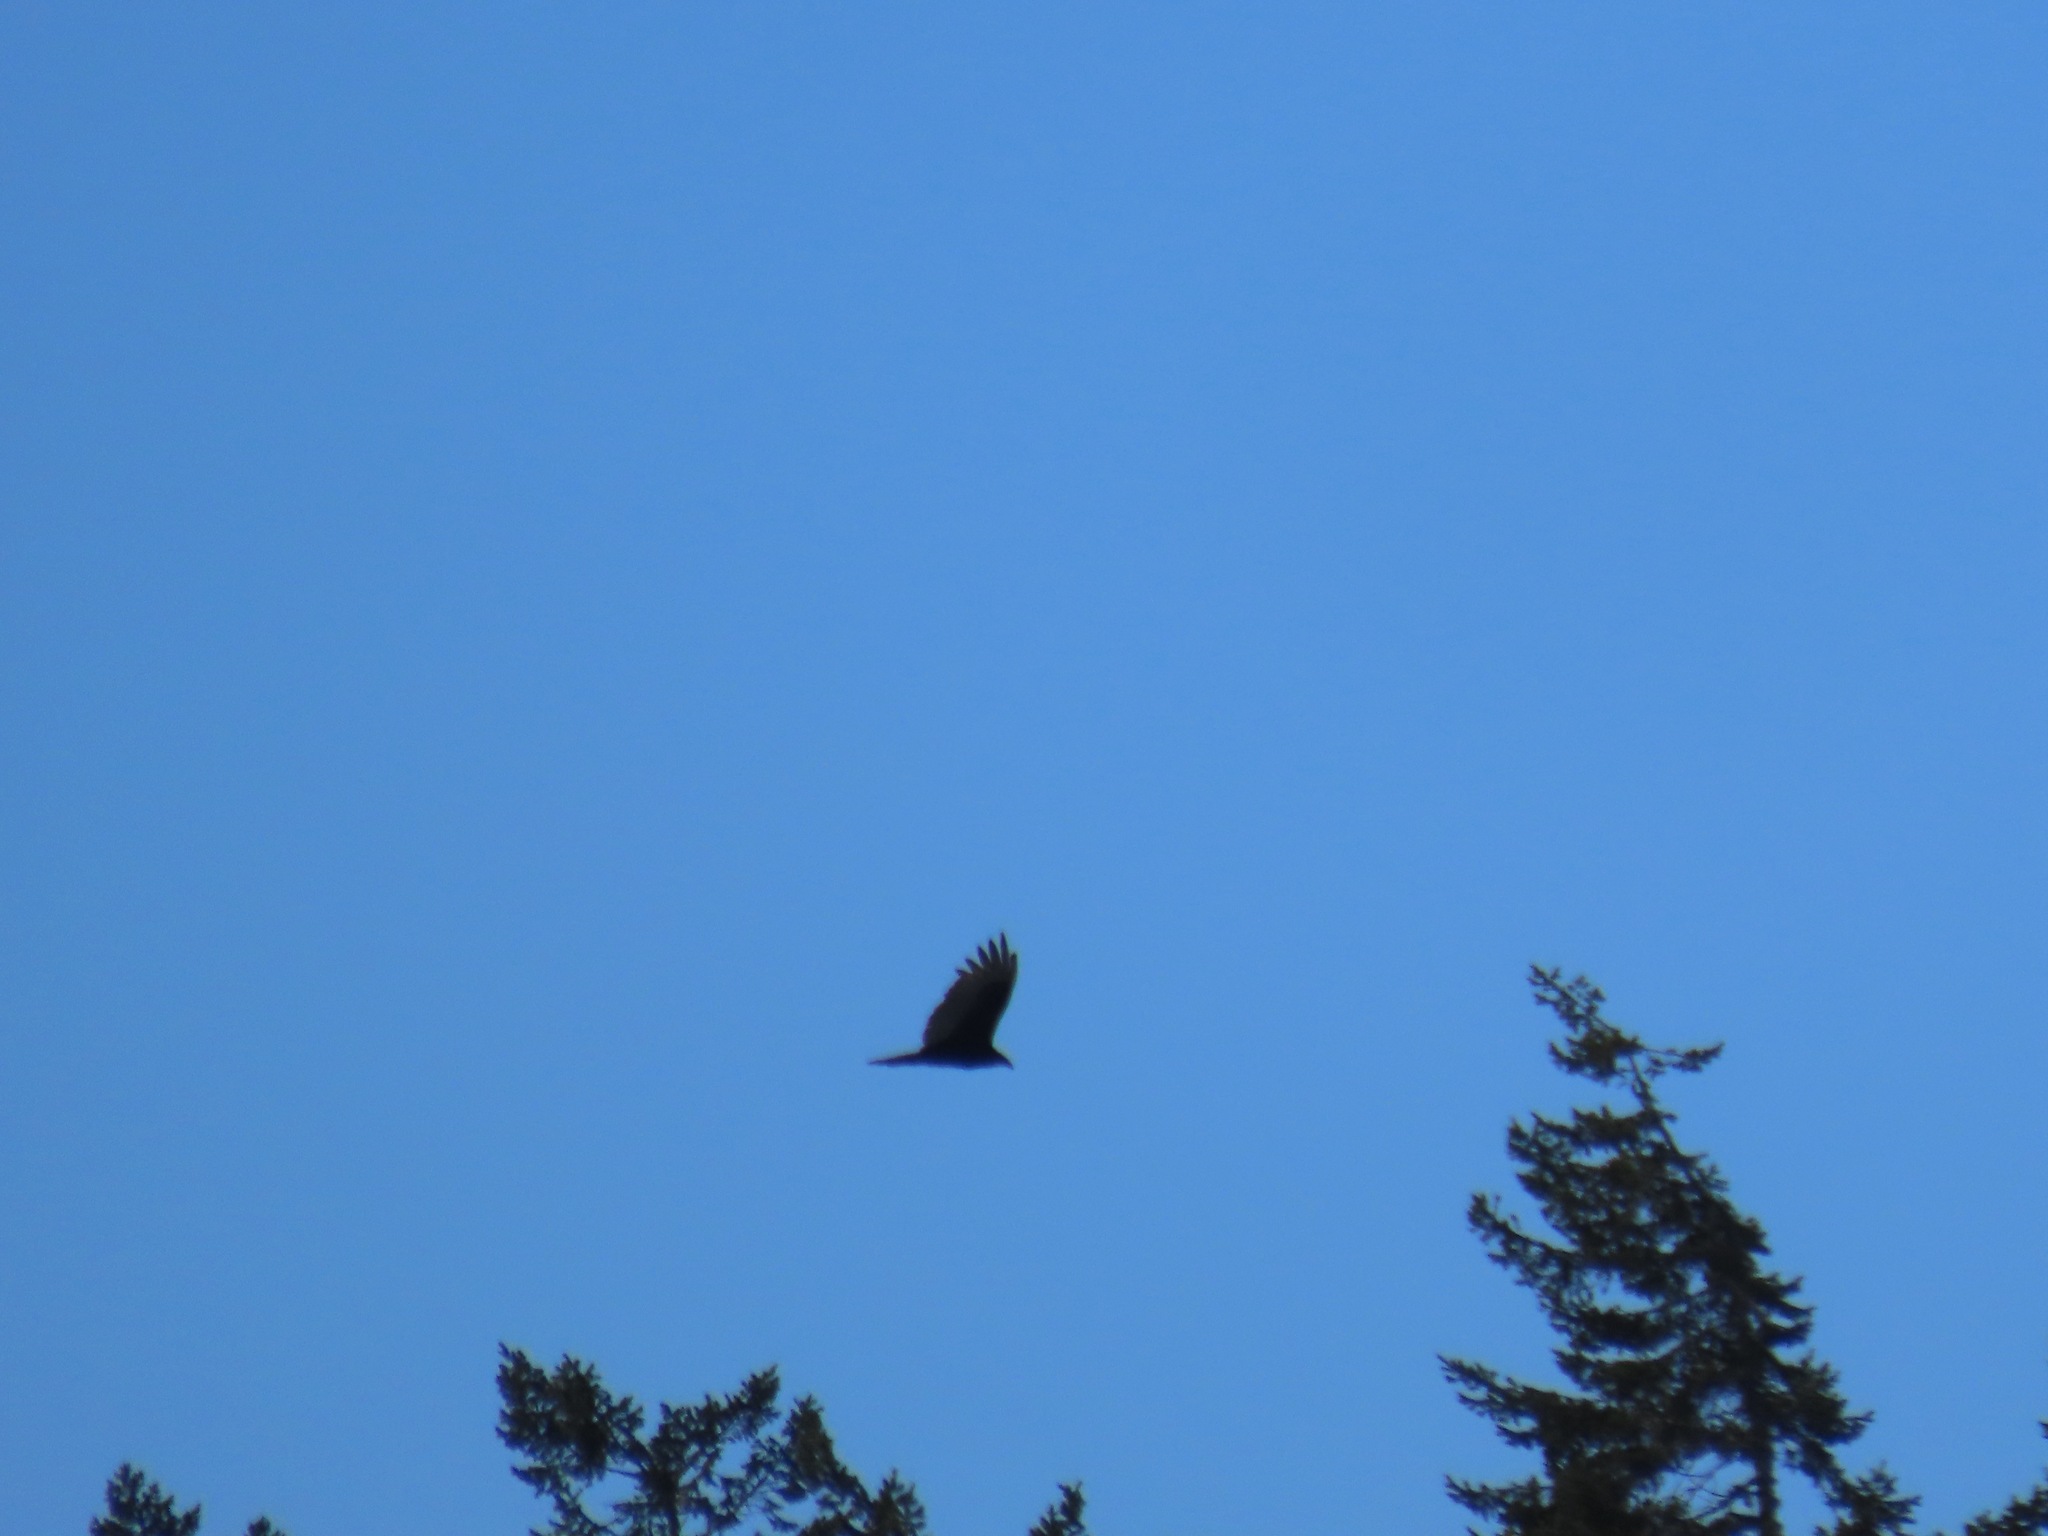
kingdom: Animalia
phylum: Chordata
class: Aves
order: Accipitriformes
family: Cathartidae
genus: Cathartes
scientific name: Cathartes aura
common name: Turkey vulture
